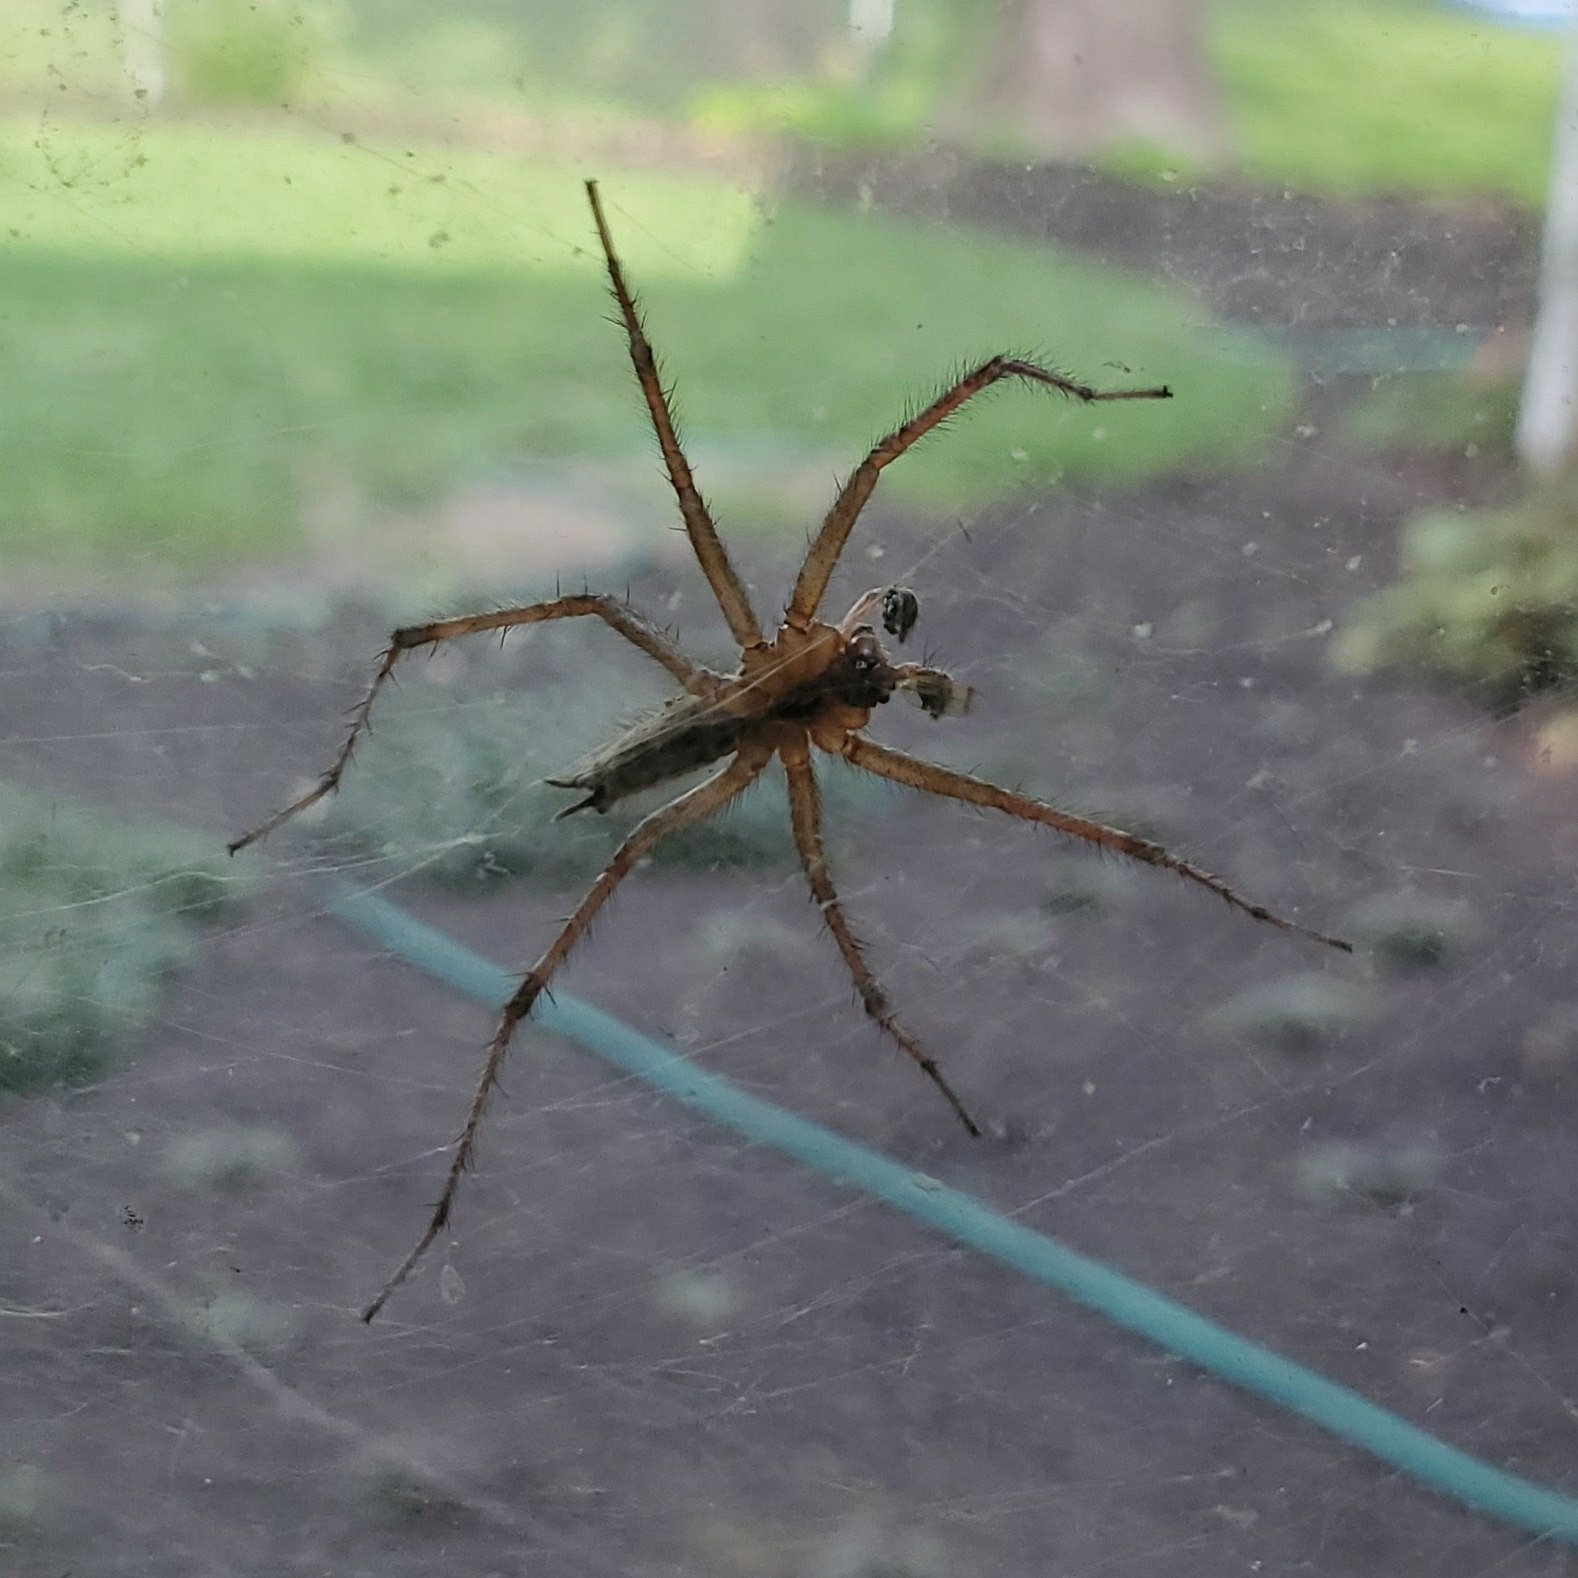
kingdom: Animalia
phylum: Arthropoda
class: Arachnida
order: Araneae
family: Agelenidae
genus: Agelenopsis
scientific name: Agelenopsis
